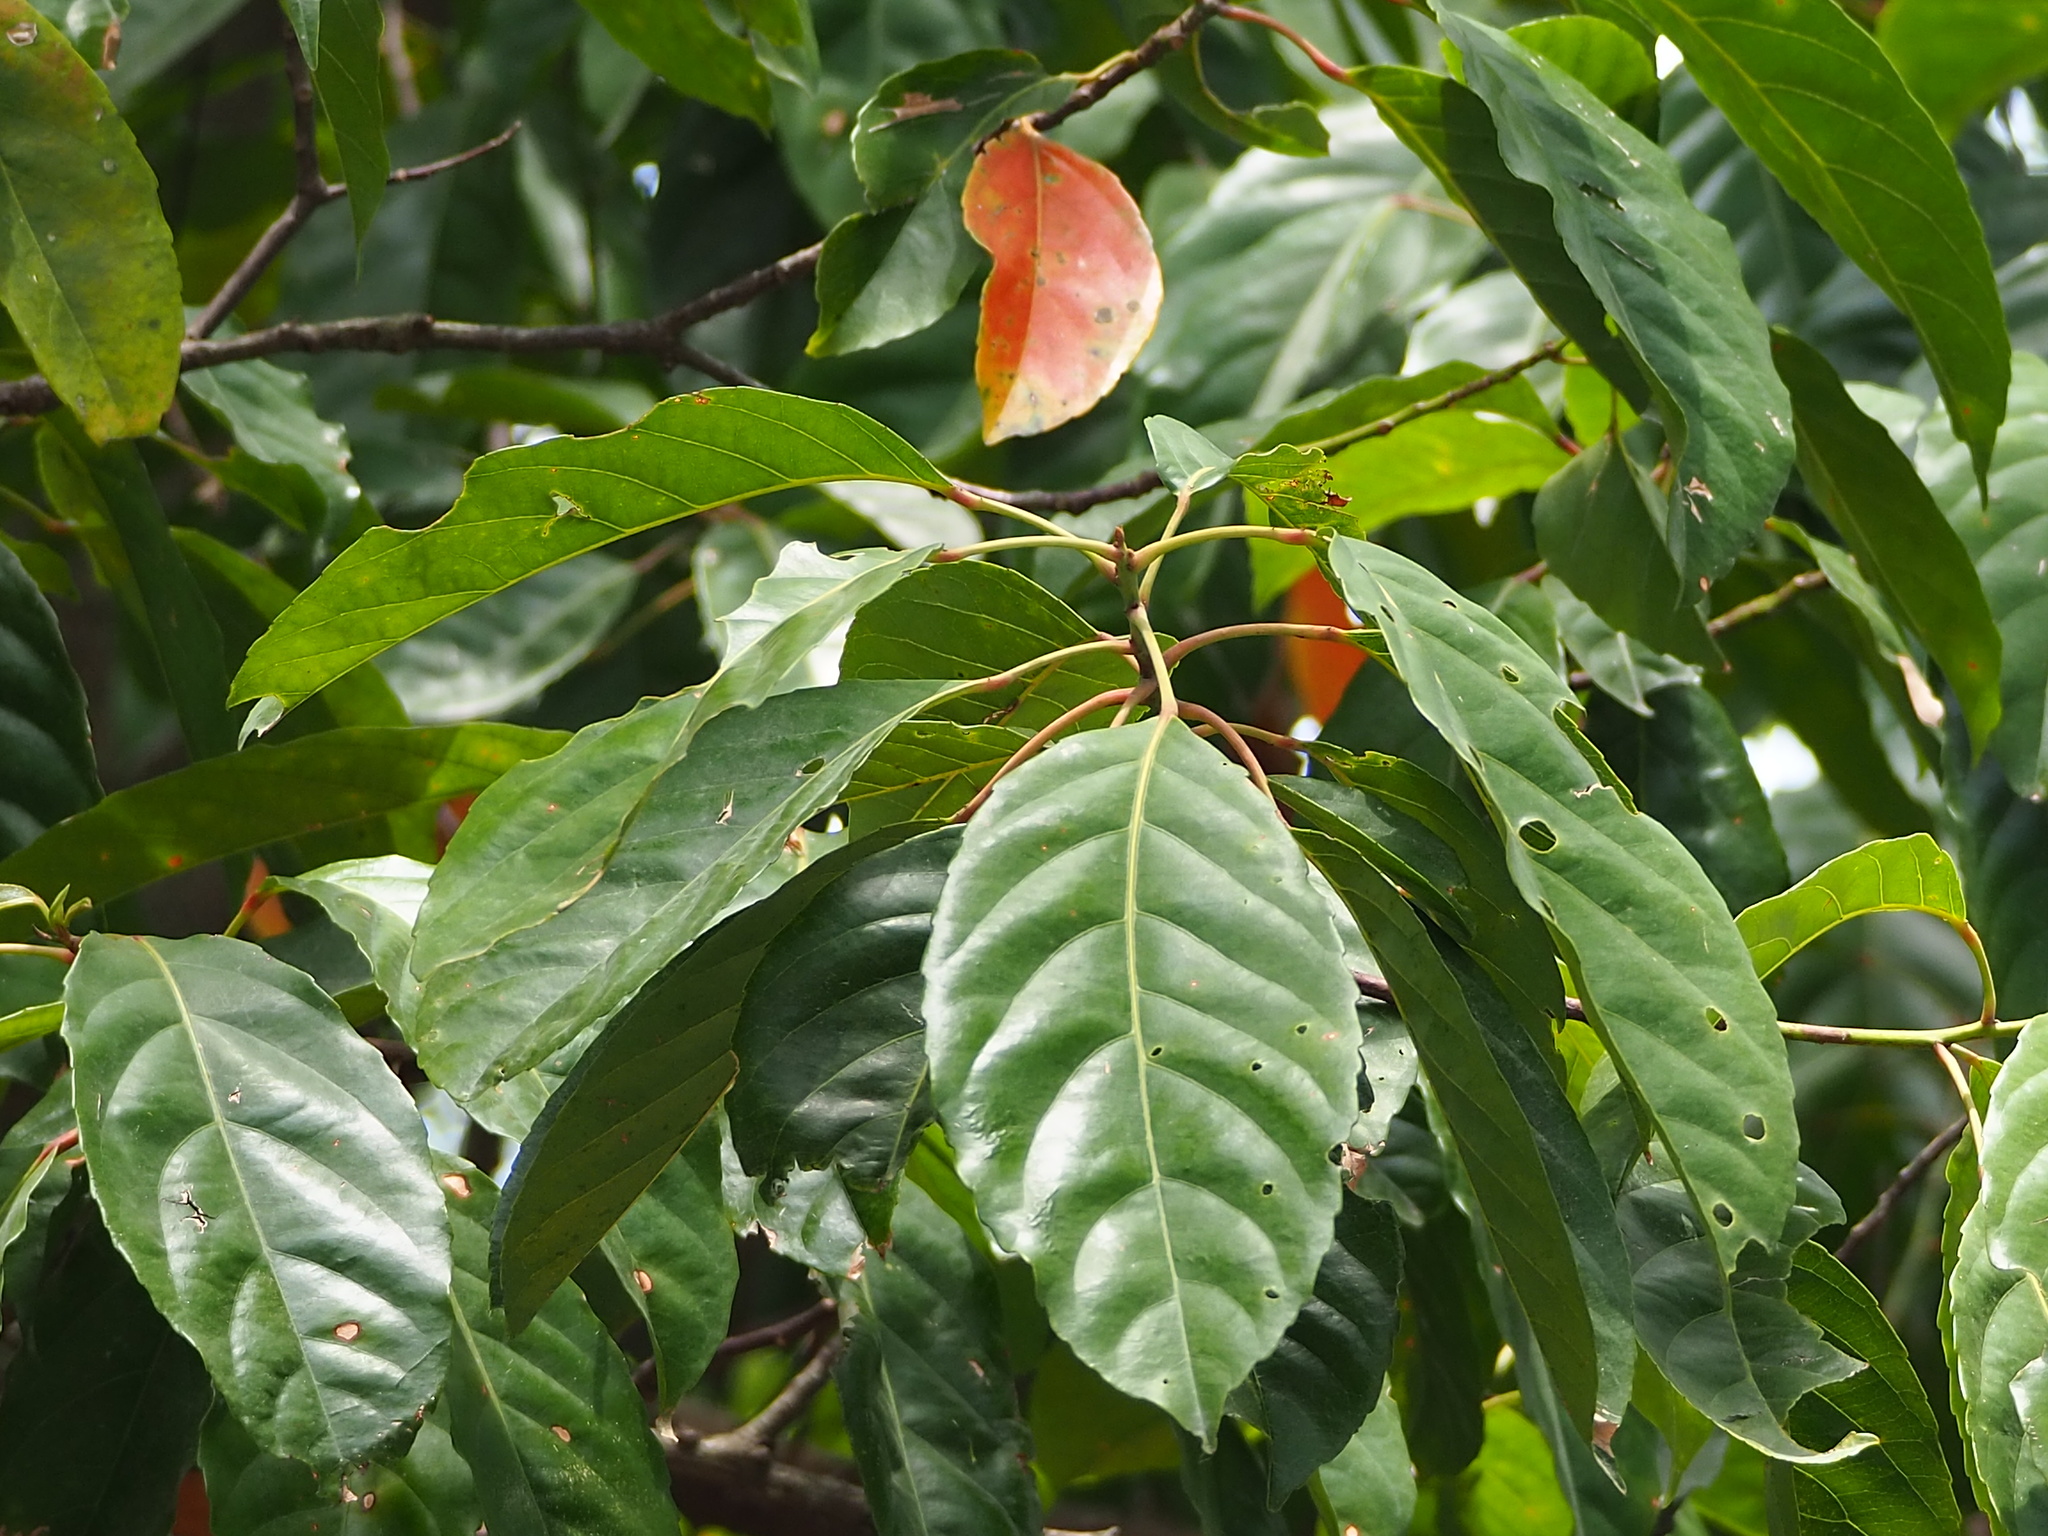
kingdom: Plantae
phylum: Tracheophyta
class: Magnoliopsida
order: Oxalidales
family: Elaeocarpaceae
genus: Elaeocarpus
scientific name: Elaeocarpus serratus
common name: Ceylon-olive
